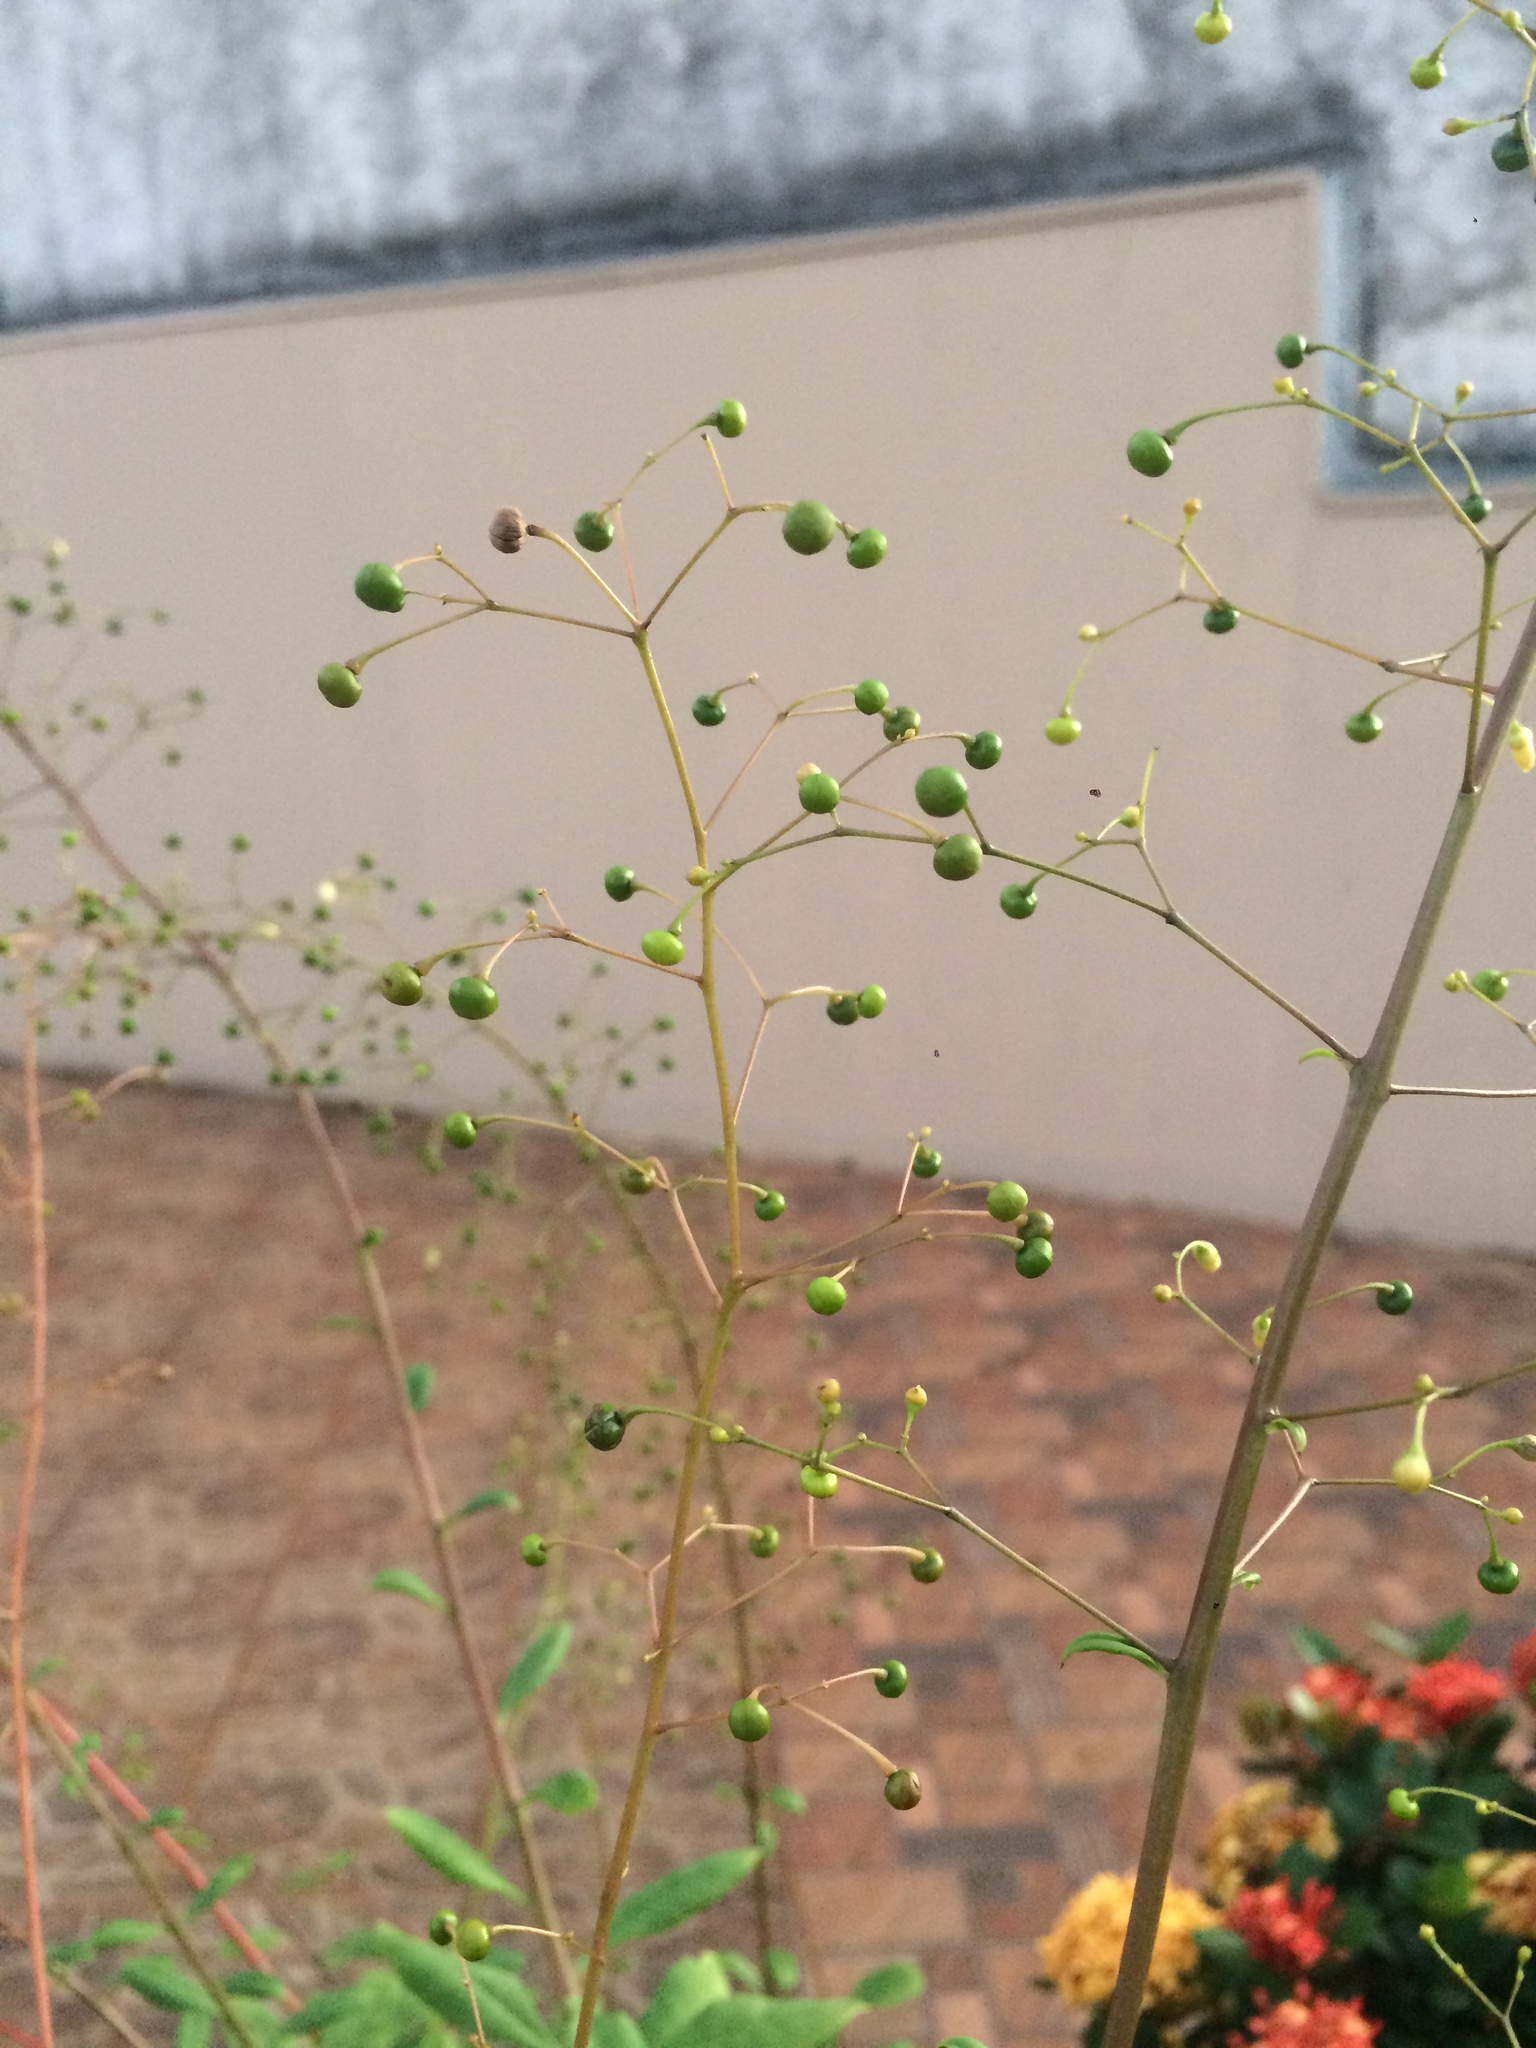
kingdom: Plantae
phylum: Tracheophyta
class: Magnoliopsida
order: Caryophyllales
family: Talinaceae
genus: Talinum
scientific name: Talinum paniculatum
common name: Jewels of opar
